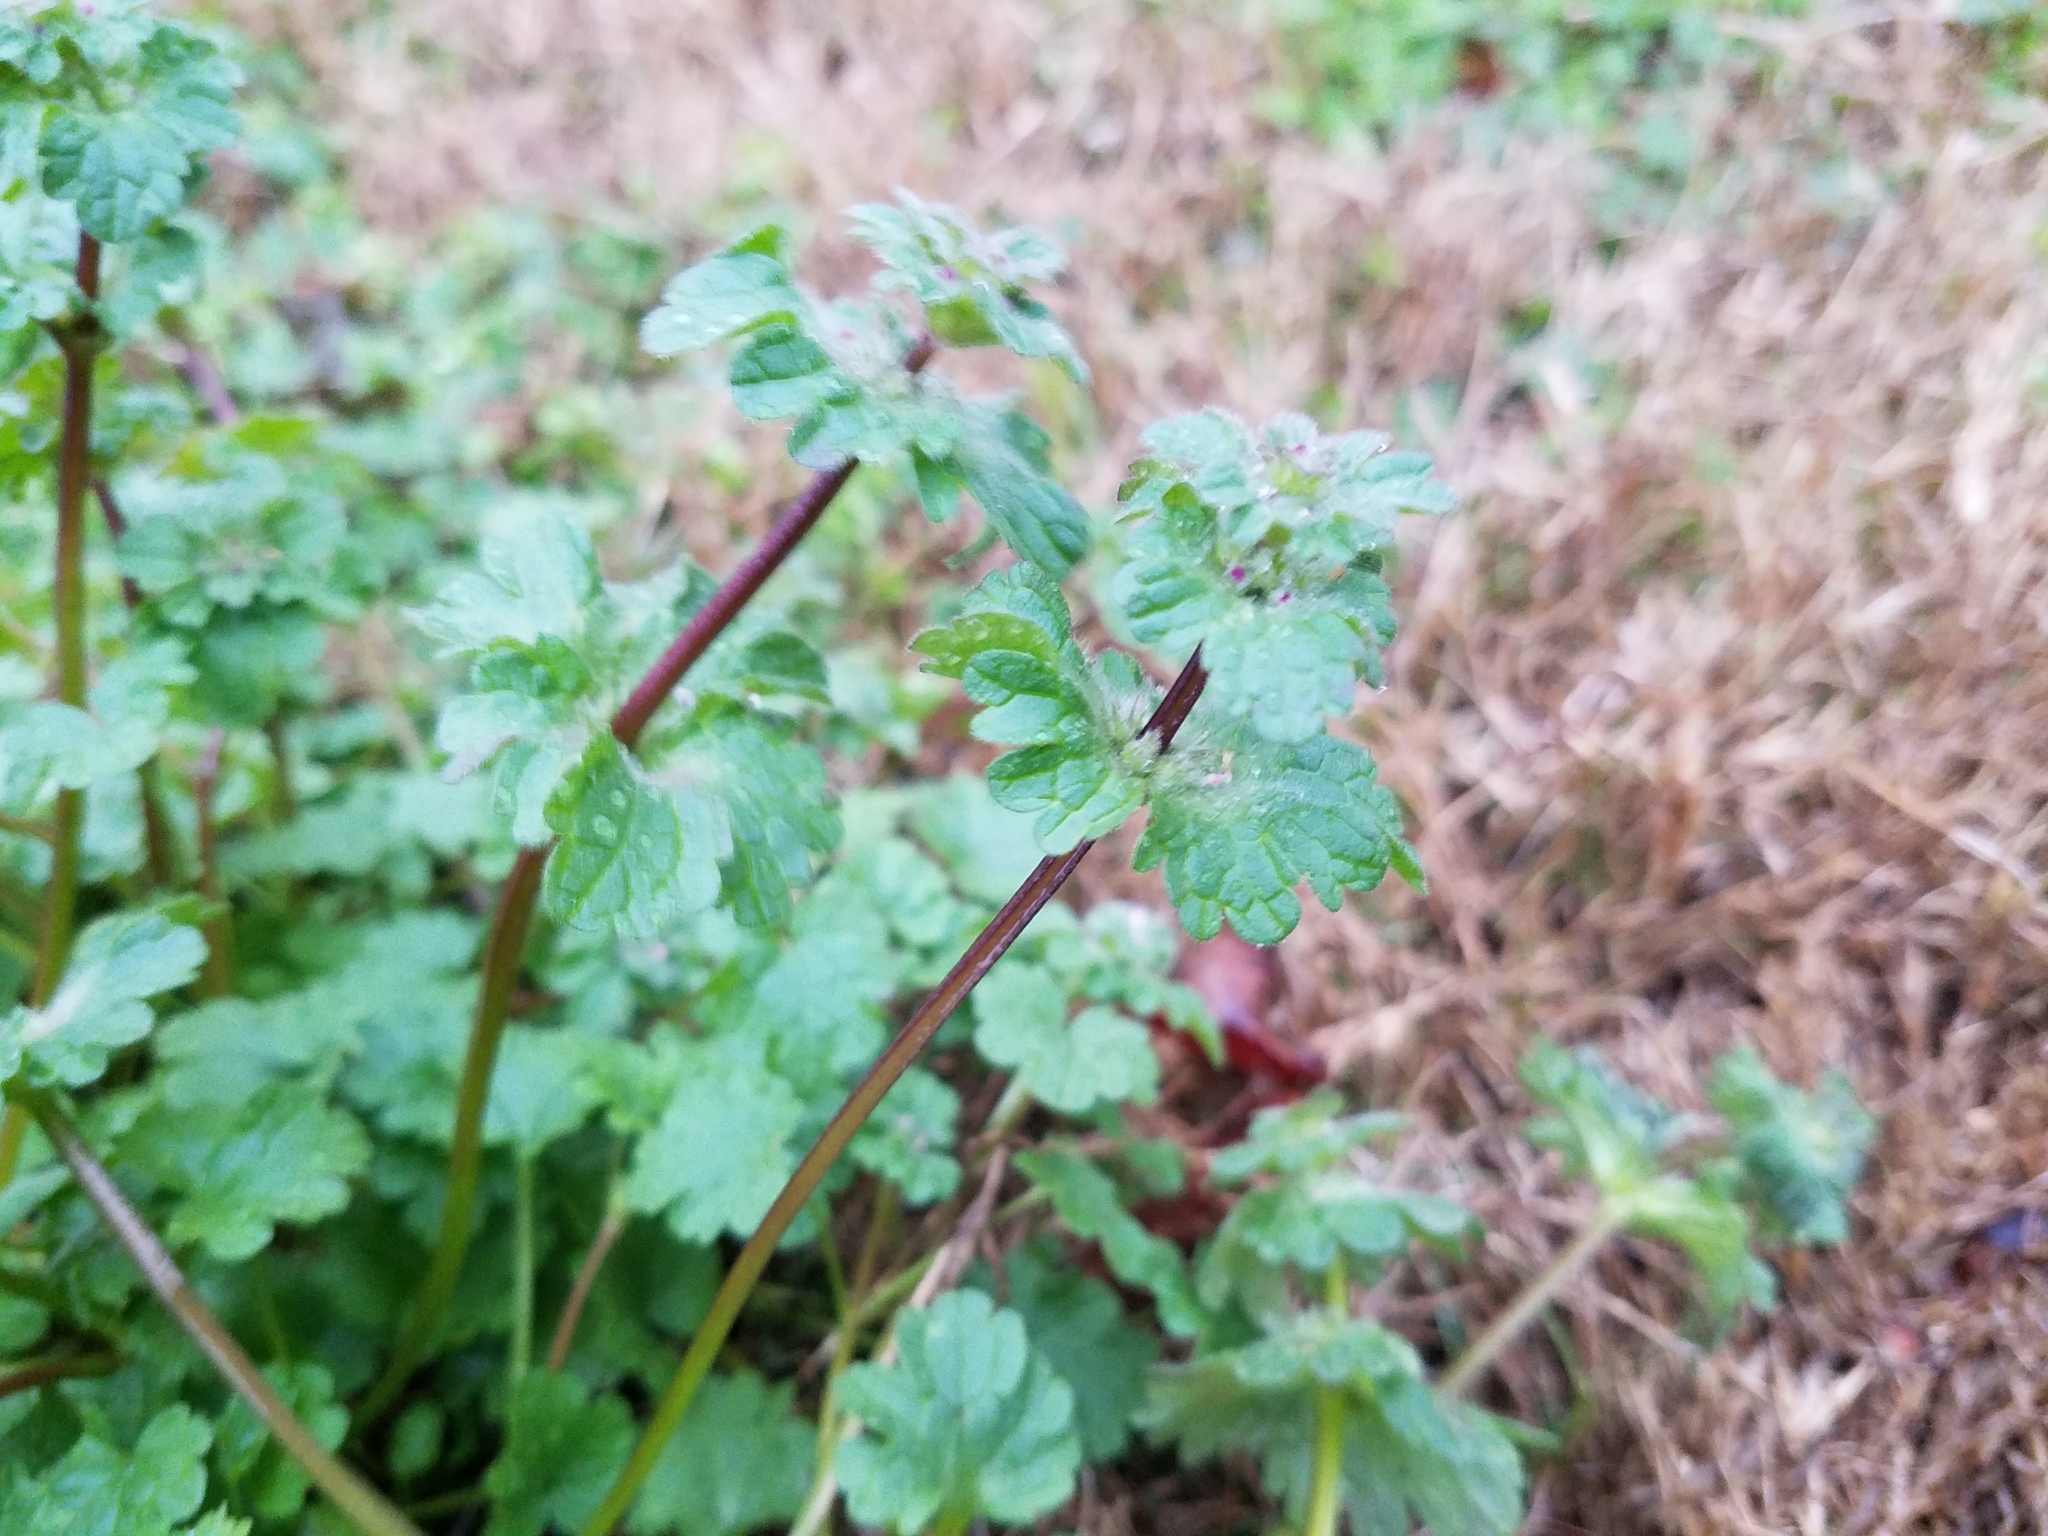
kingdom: Plantae
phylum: Tracheophyta
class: Magnoliopsida
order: Lamiales
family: Lamiaceae
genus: Lamium
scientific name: Lamium amplexicaule
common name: Henbit dead-nettle
